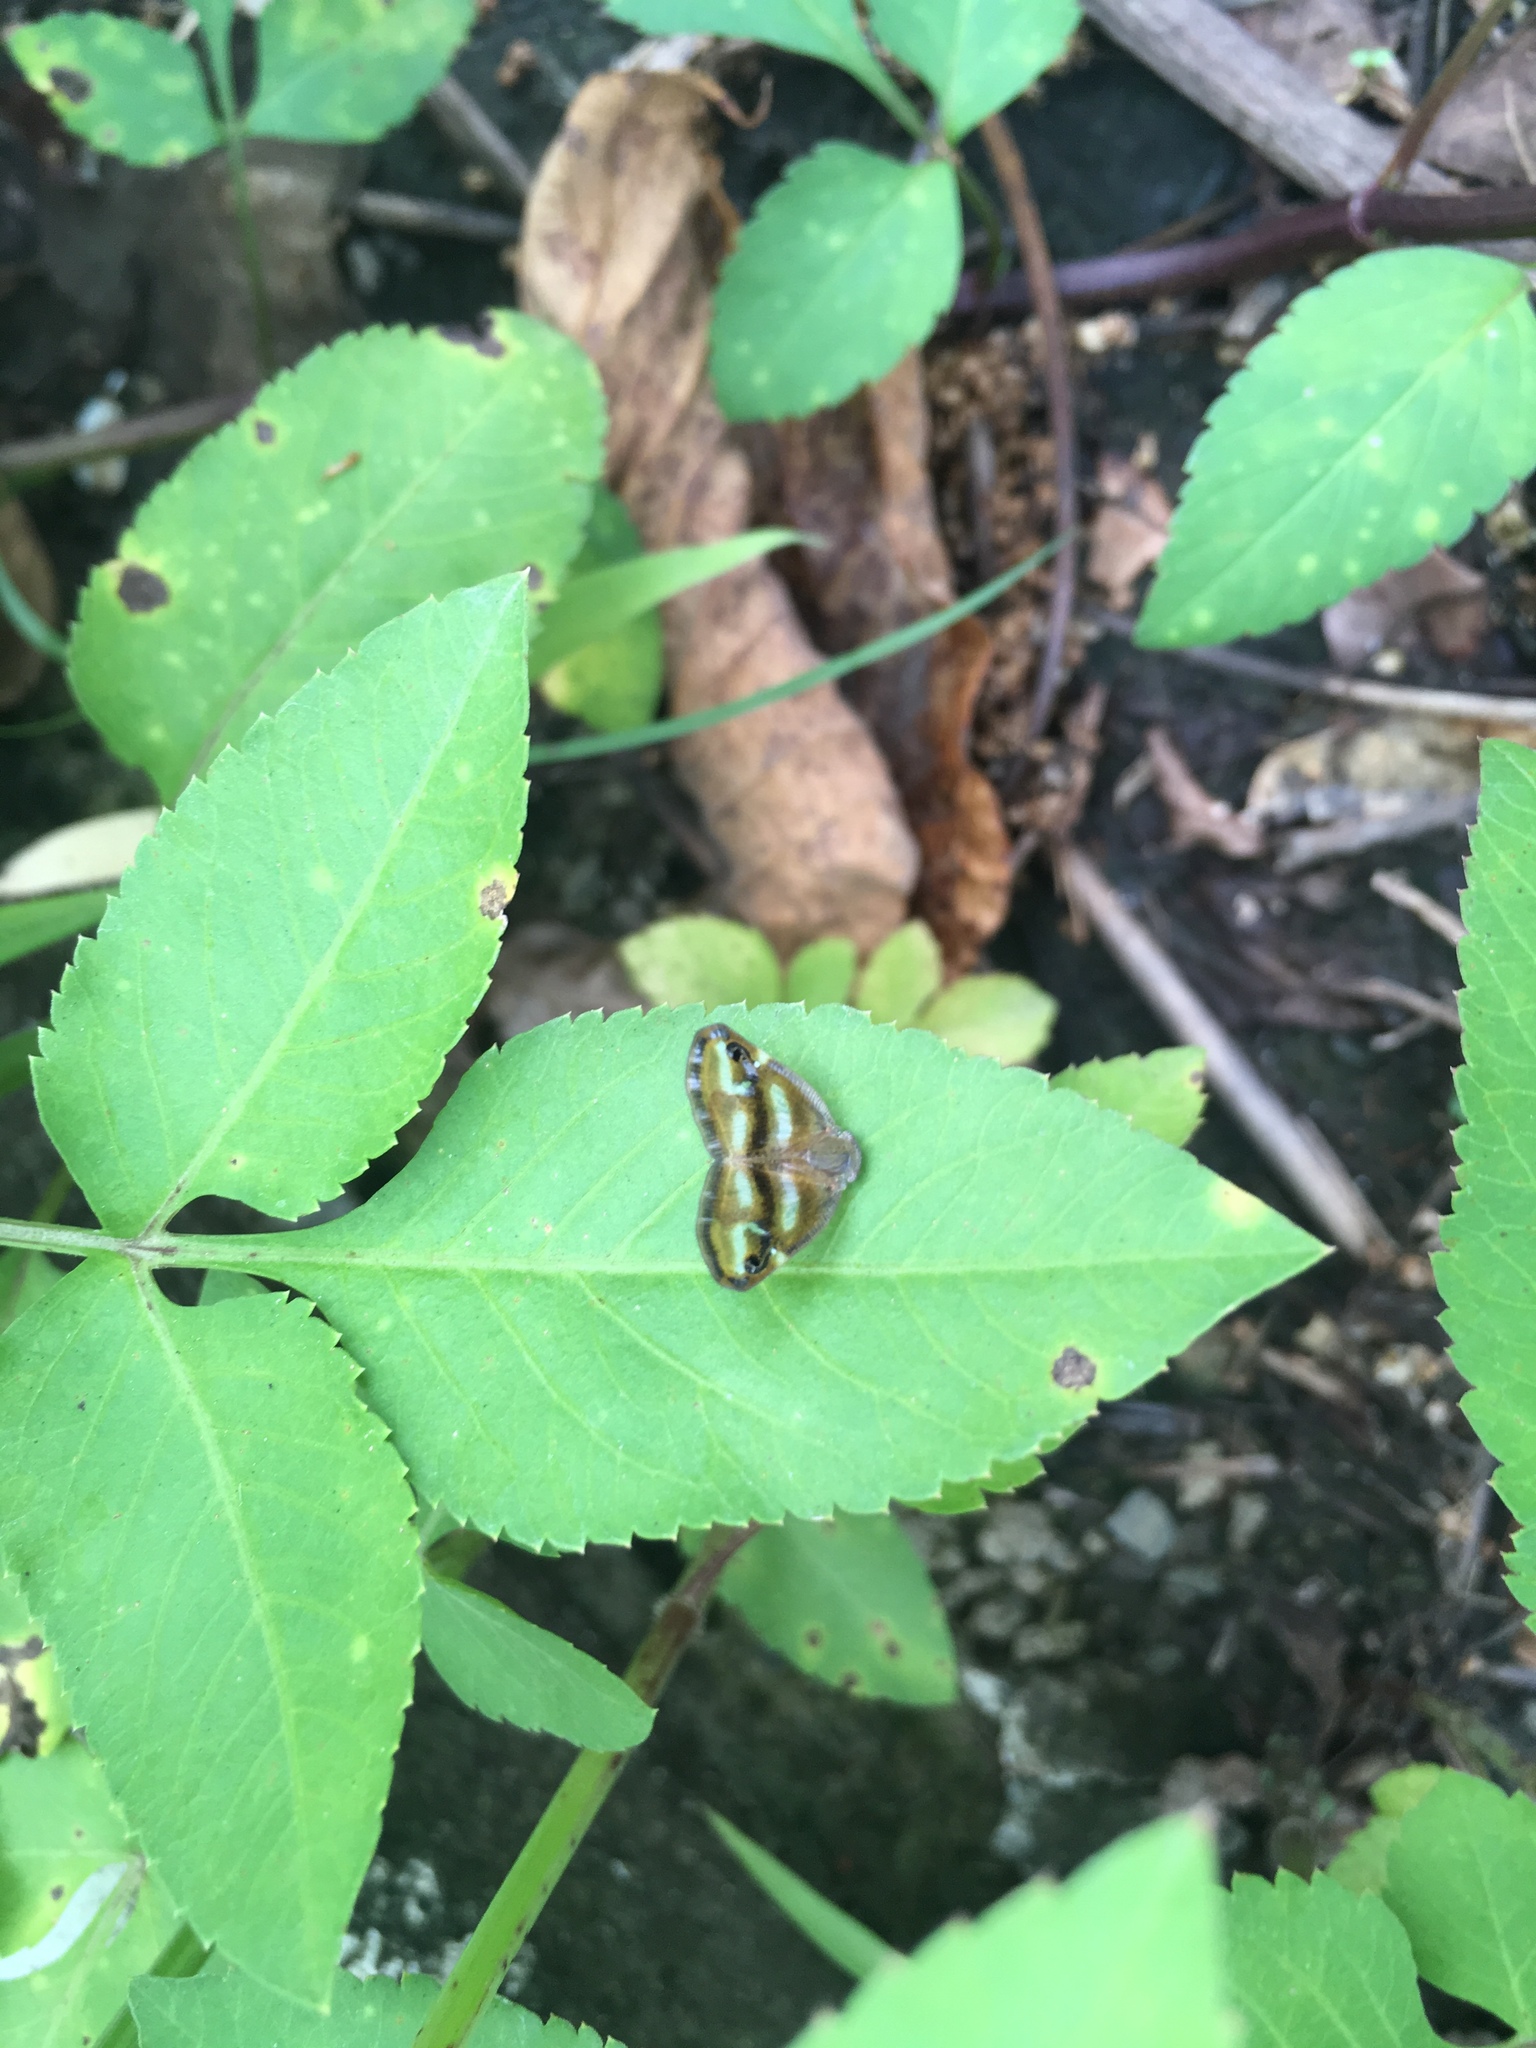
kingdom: Animalia
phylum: Arthropoda
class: Insecta
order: Hemiptera
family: Ricaniidae
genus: Ricania
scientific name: Ricania simulans
